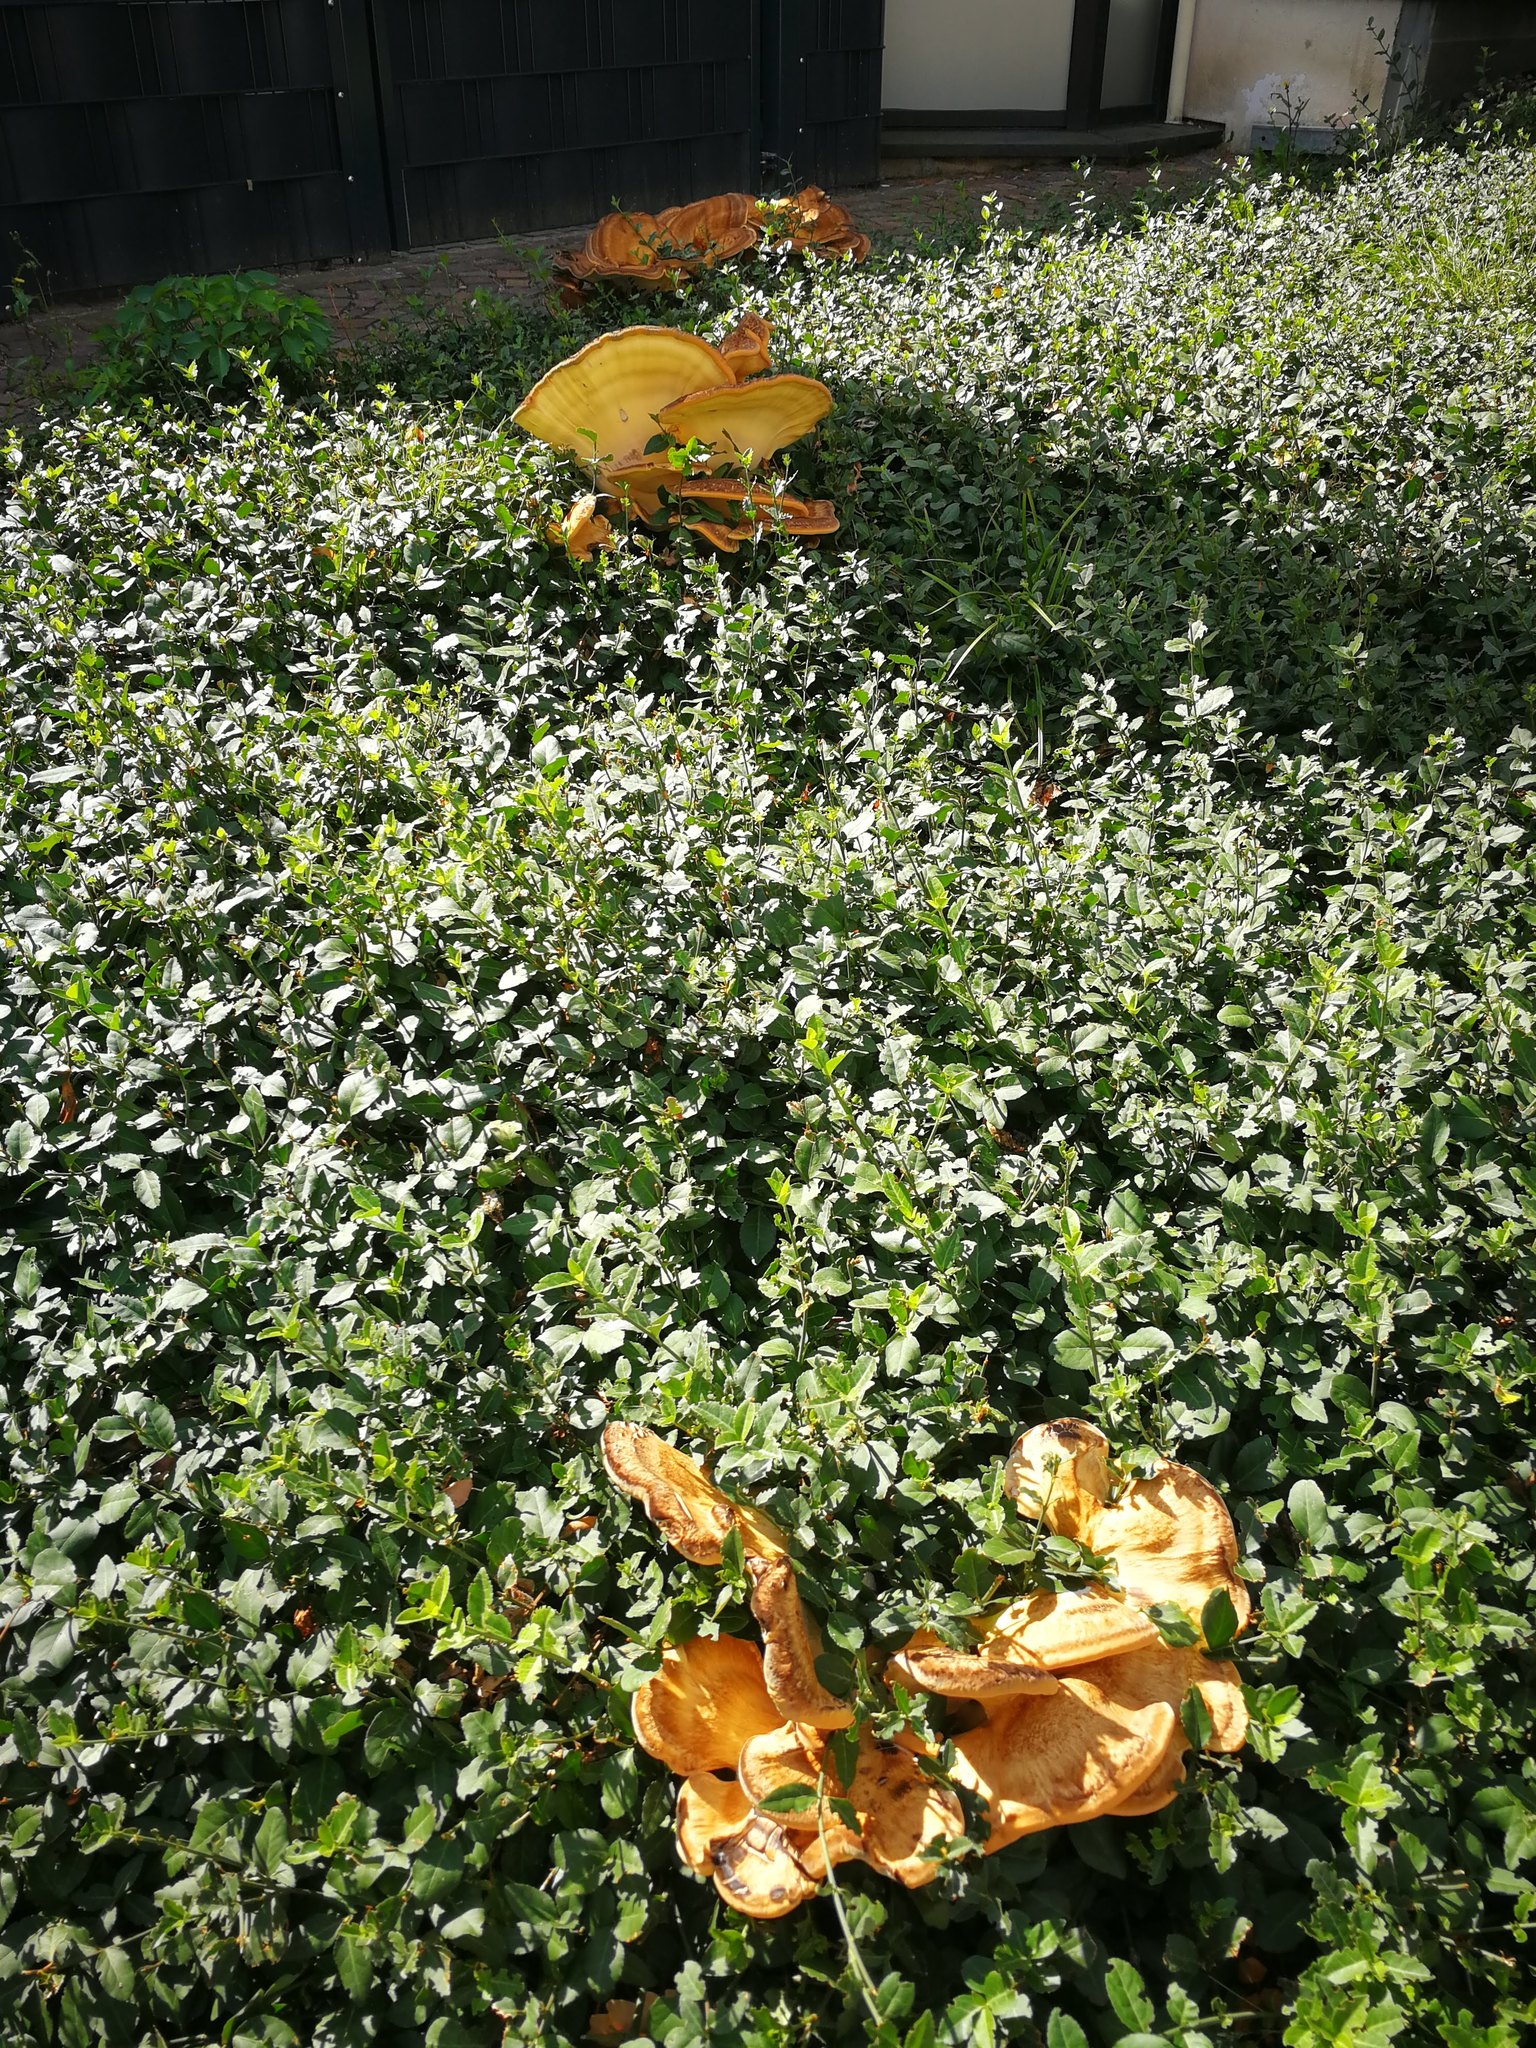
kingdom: Fungi
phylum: Basidiomycota
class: Agaricomycetes
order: Polyporales
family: Meripilaceae
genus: Meripilus
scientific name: Meripilus giganteus
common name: Giant polypore
